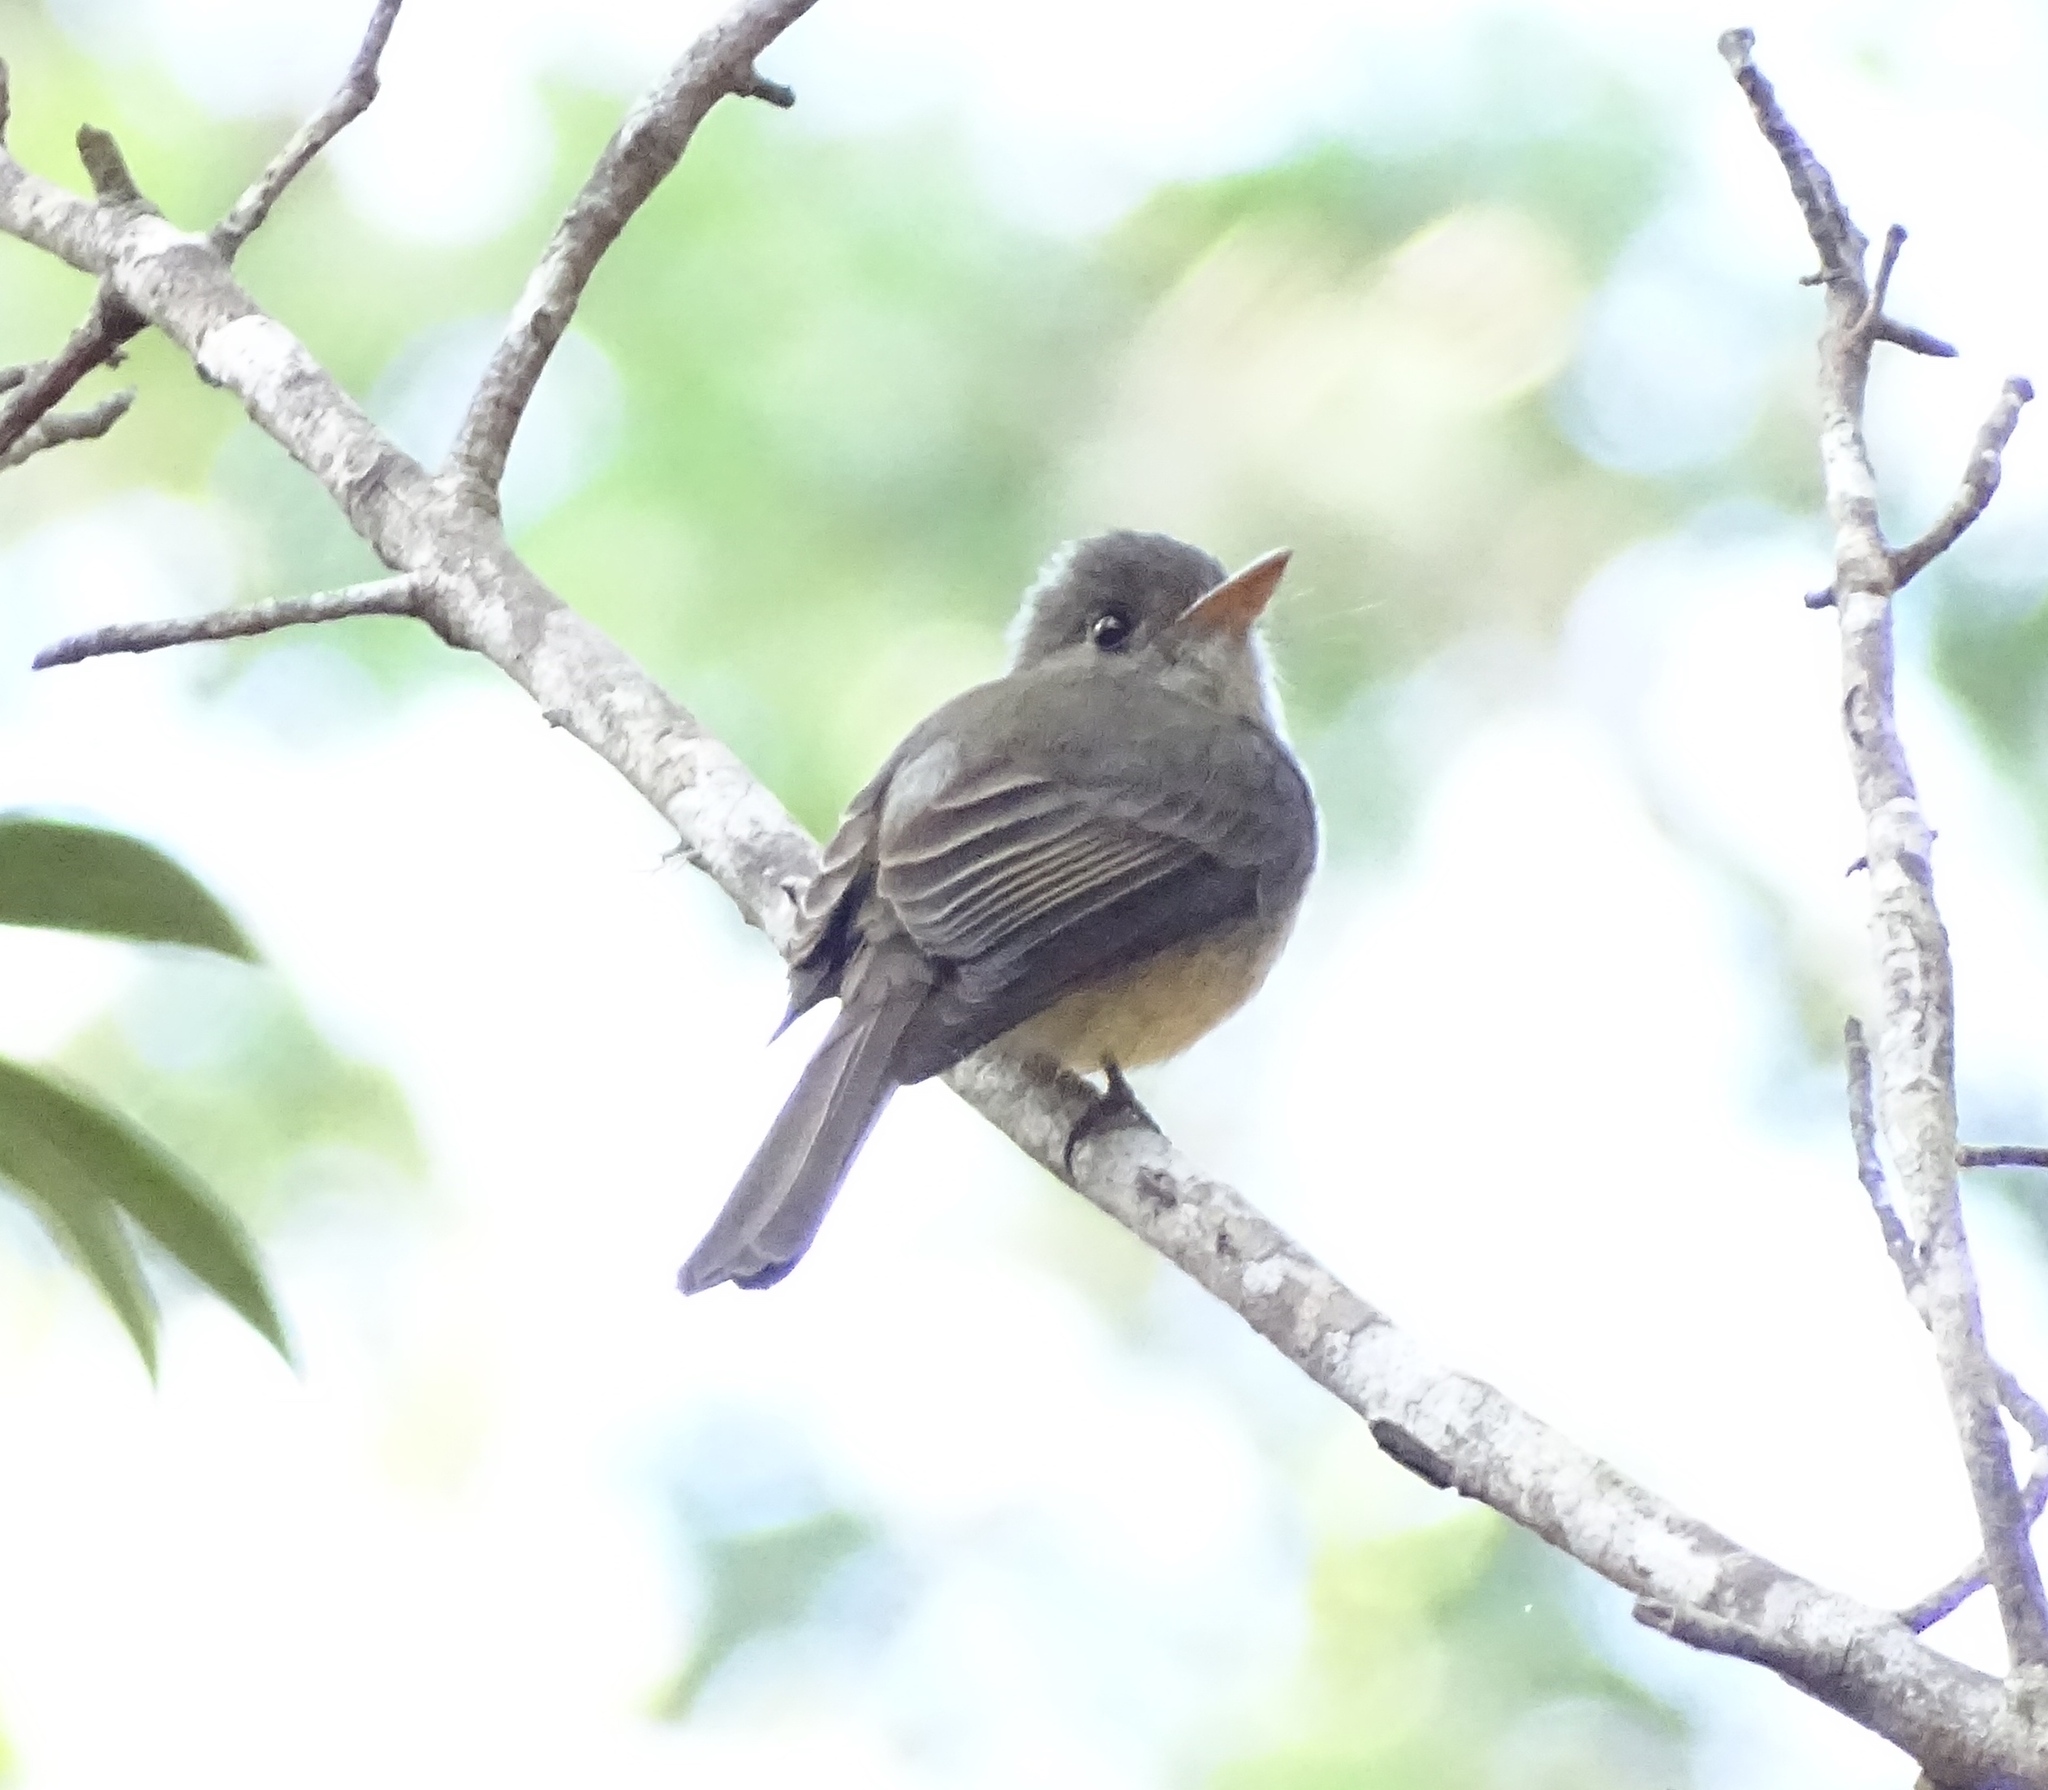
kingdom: Animalia
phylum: Chordata
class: Aves
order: Passeriformes
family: Tyrannidae
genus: Contopus
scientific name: Contopus latirostris
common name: Lesser antillean pewee
